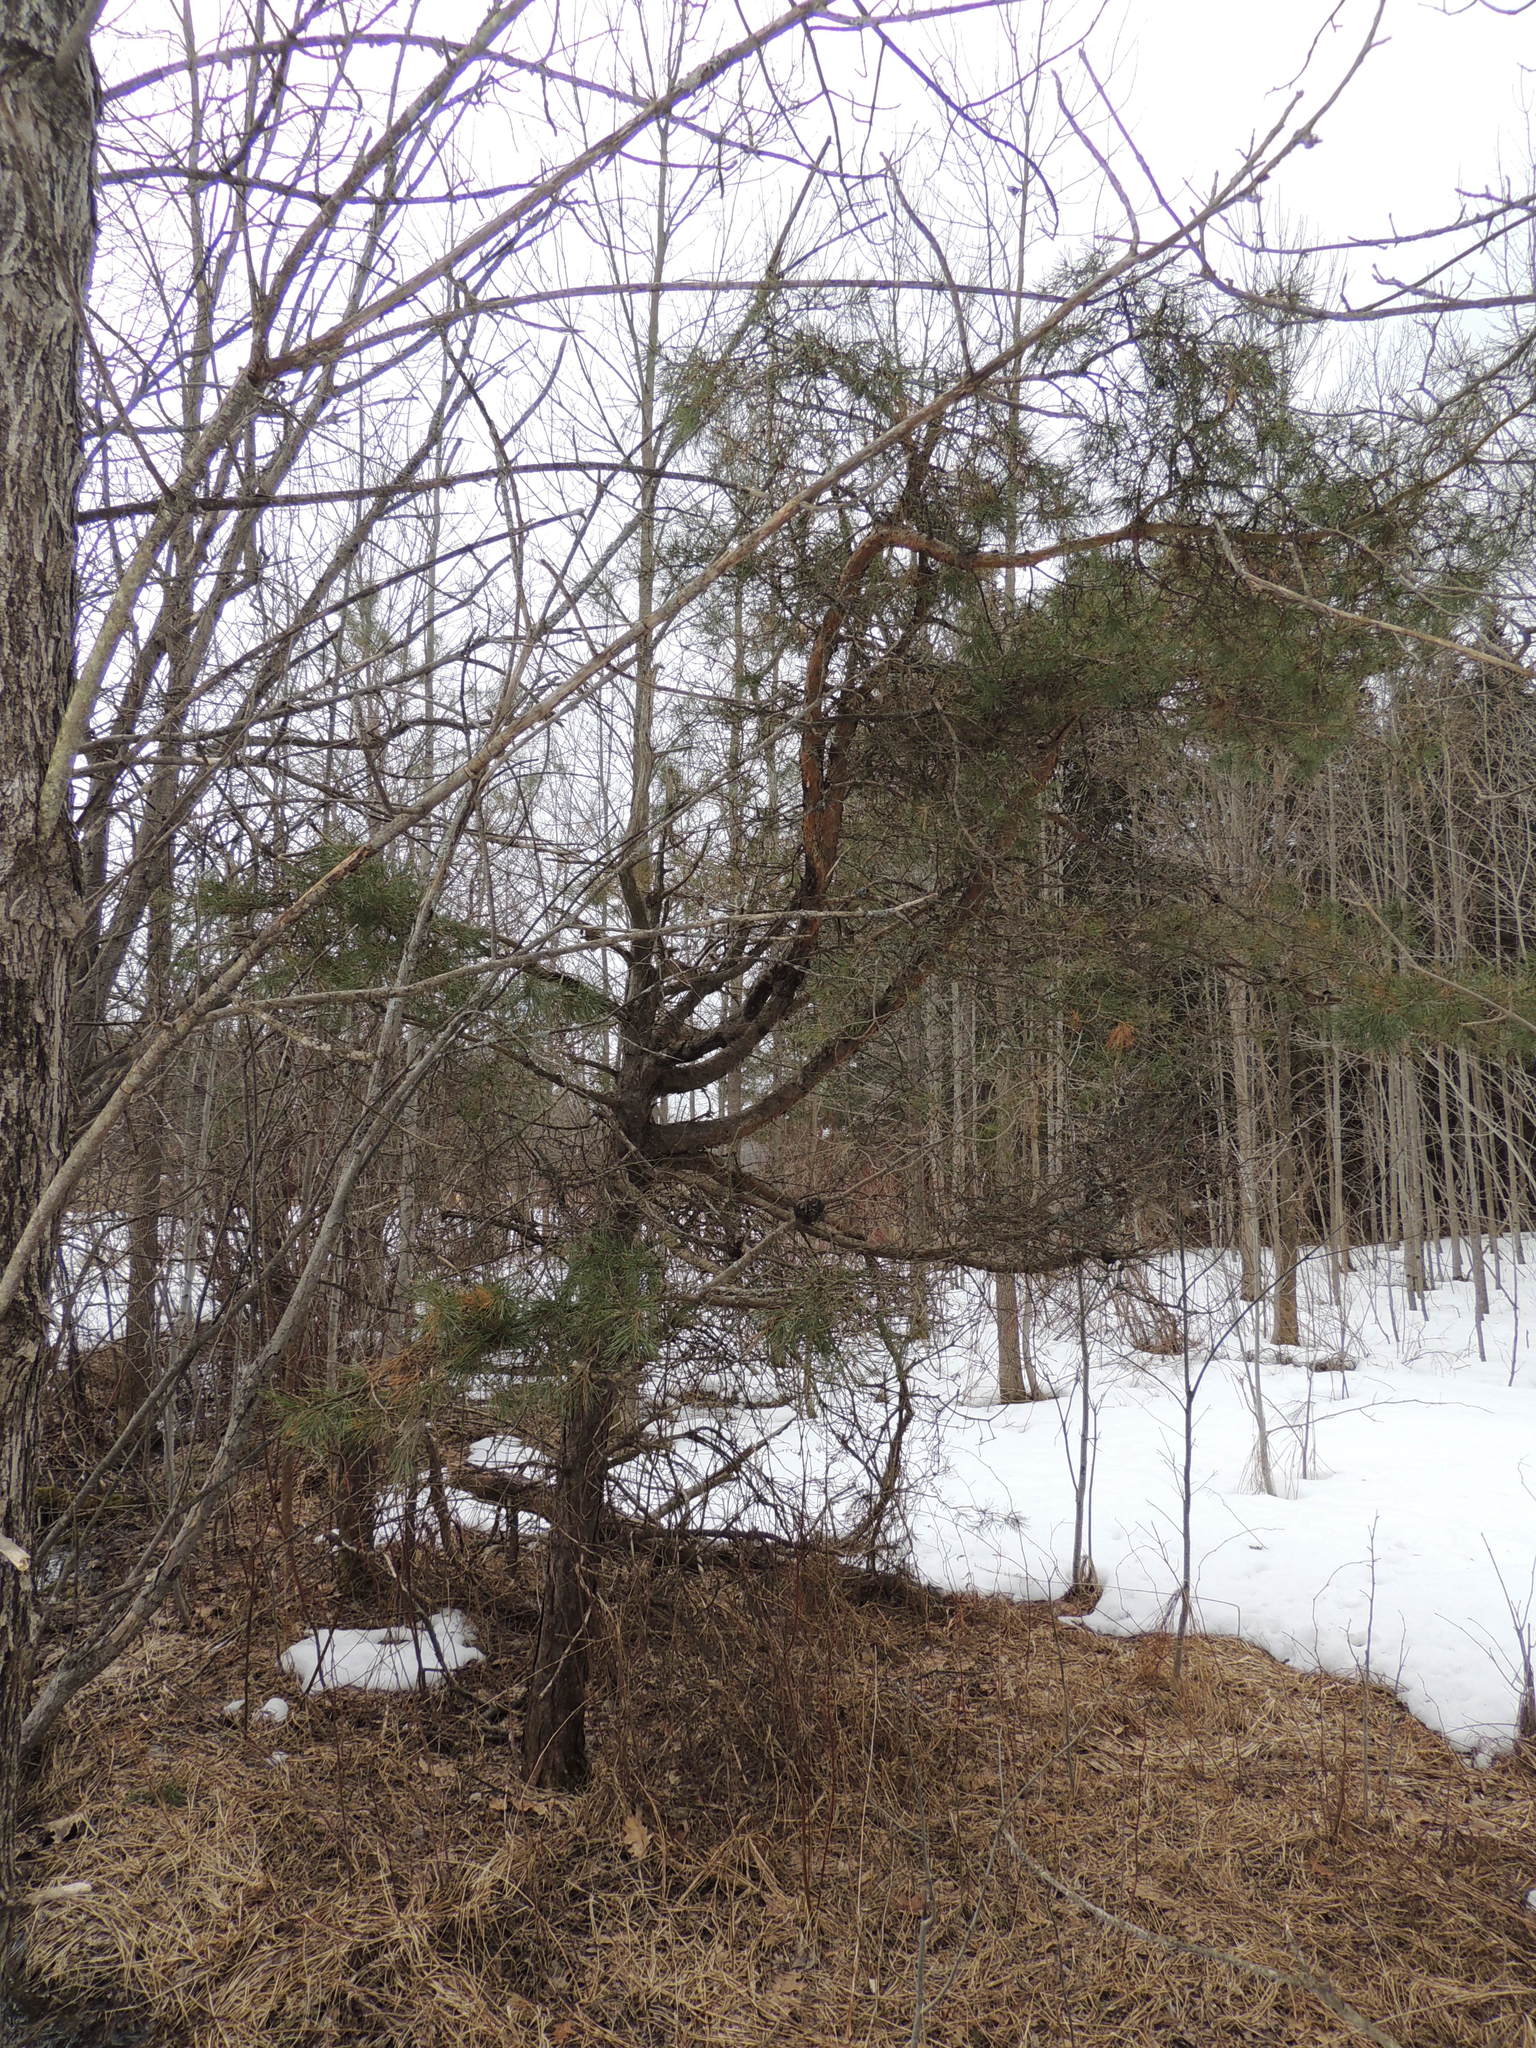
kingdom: Plantae
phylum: Tracheophyta
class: Pinopsida
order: Pinales
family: Pinaceae
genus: Pinus
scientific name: Pinus sylvestris
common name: Scots pine
